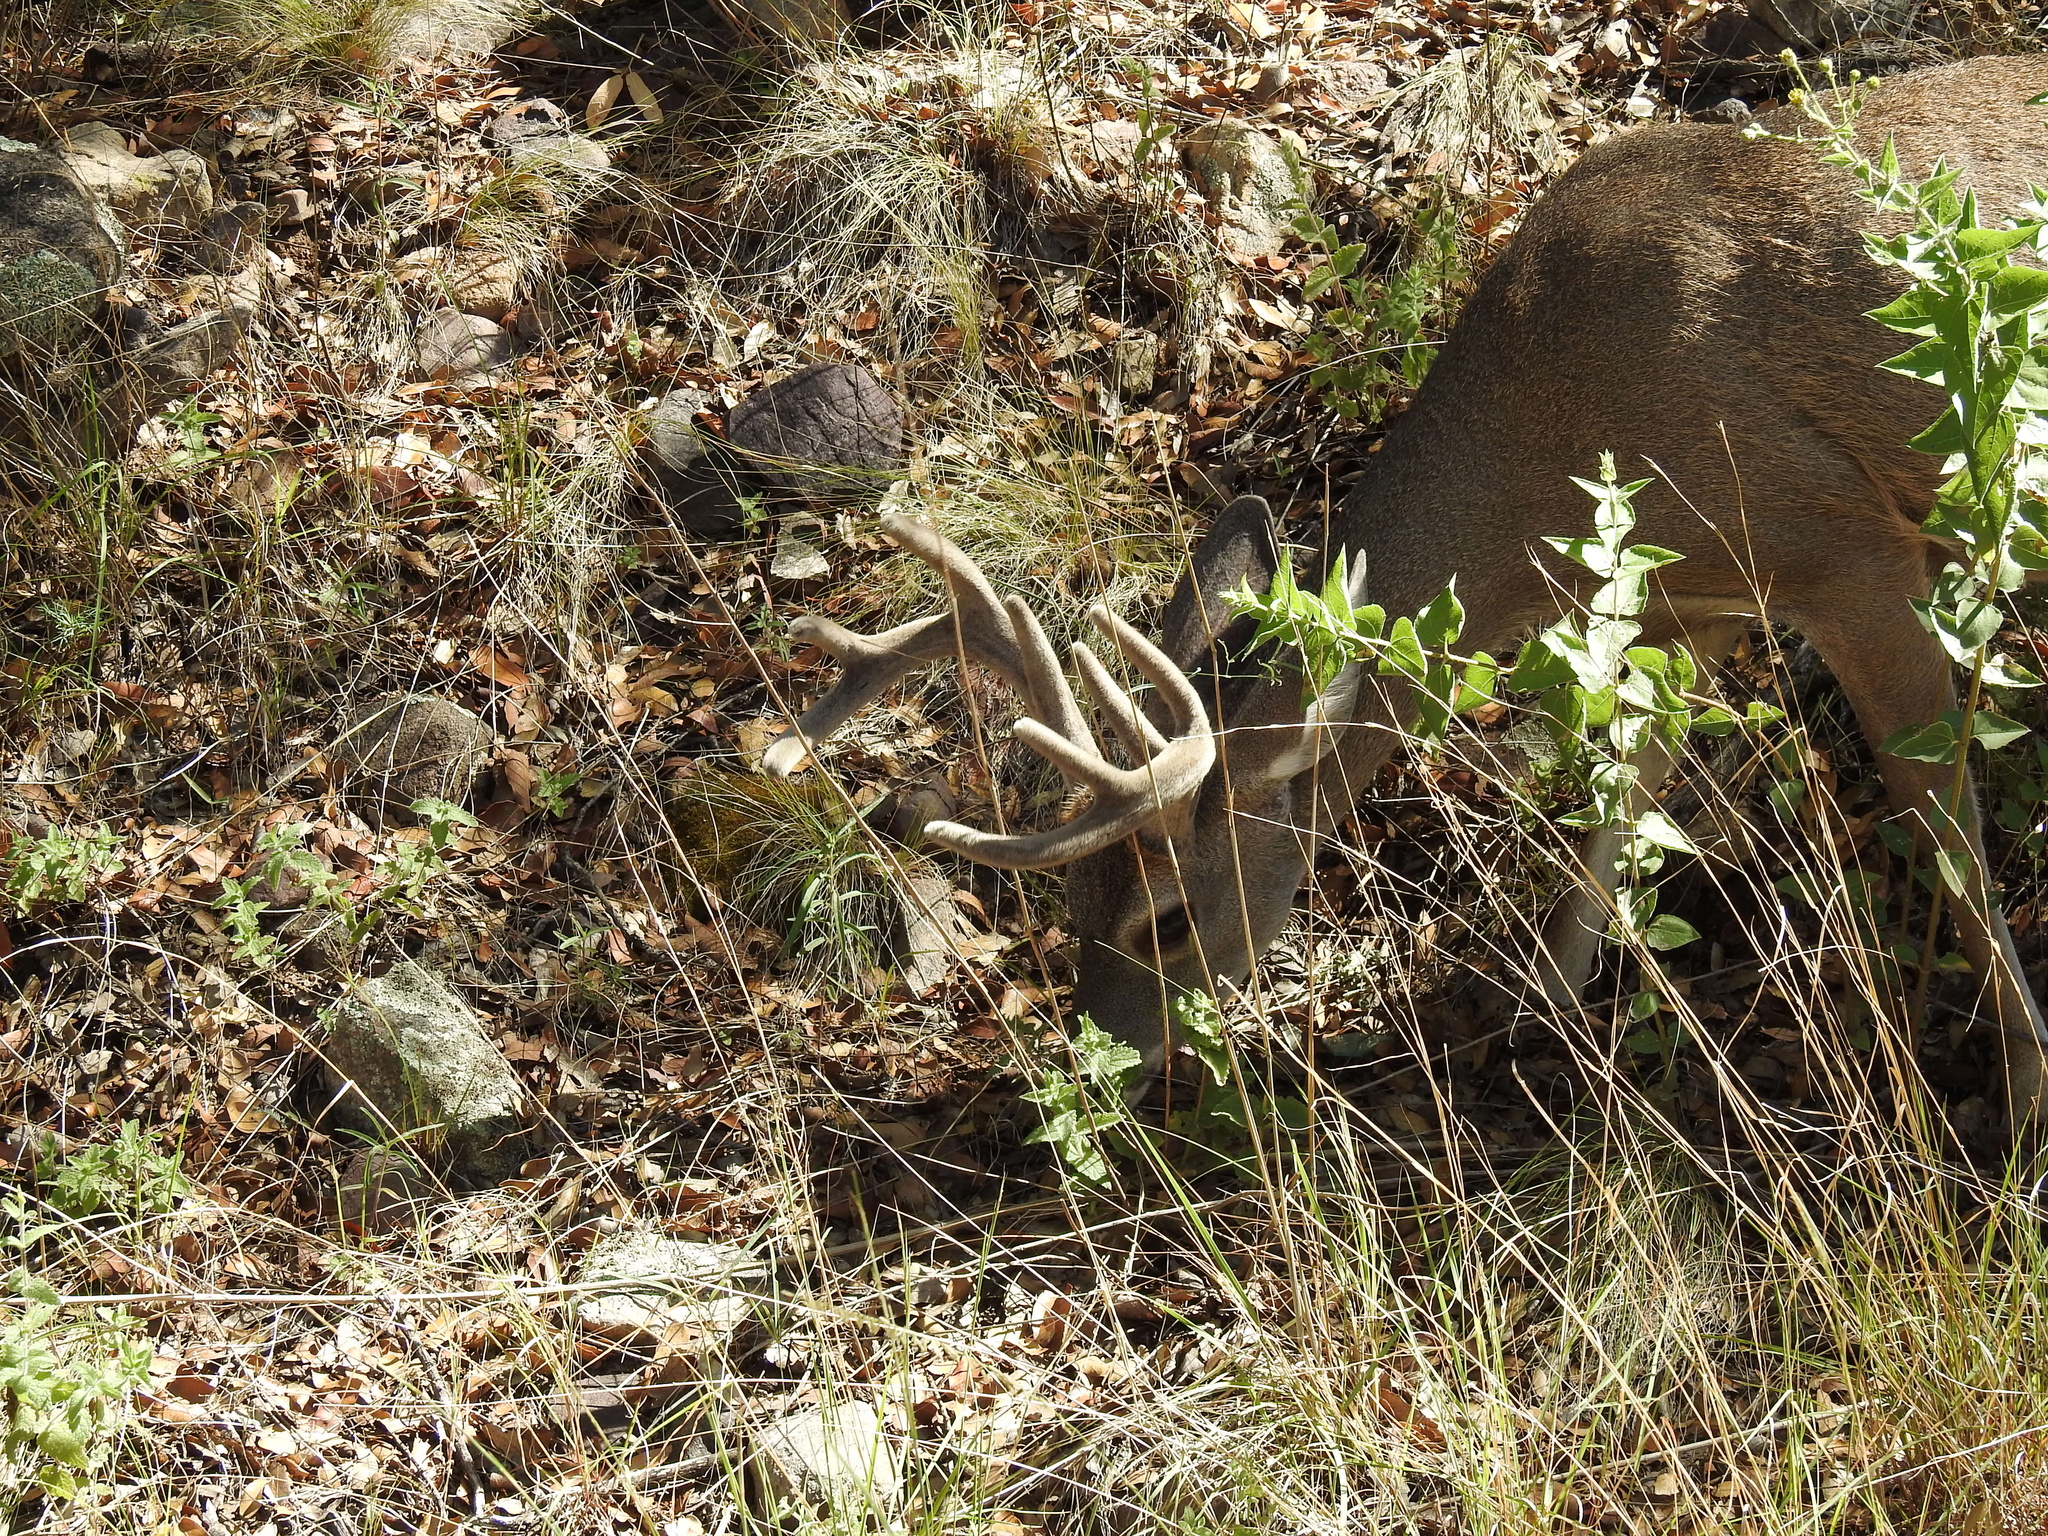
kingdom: Animalia
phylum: Chordata
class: Mammalia
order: Artiodactyla
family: Cervidae
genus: Odocoileus
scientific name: Odocoileus virginianus
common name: White-tailed deer
